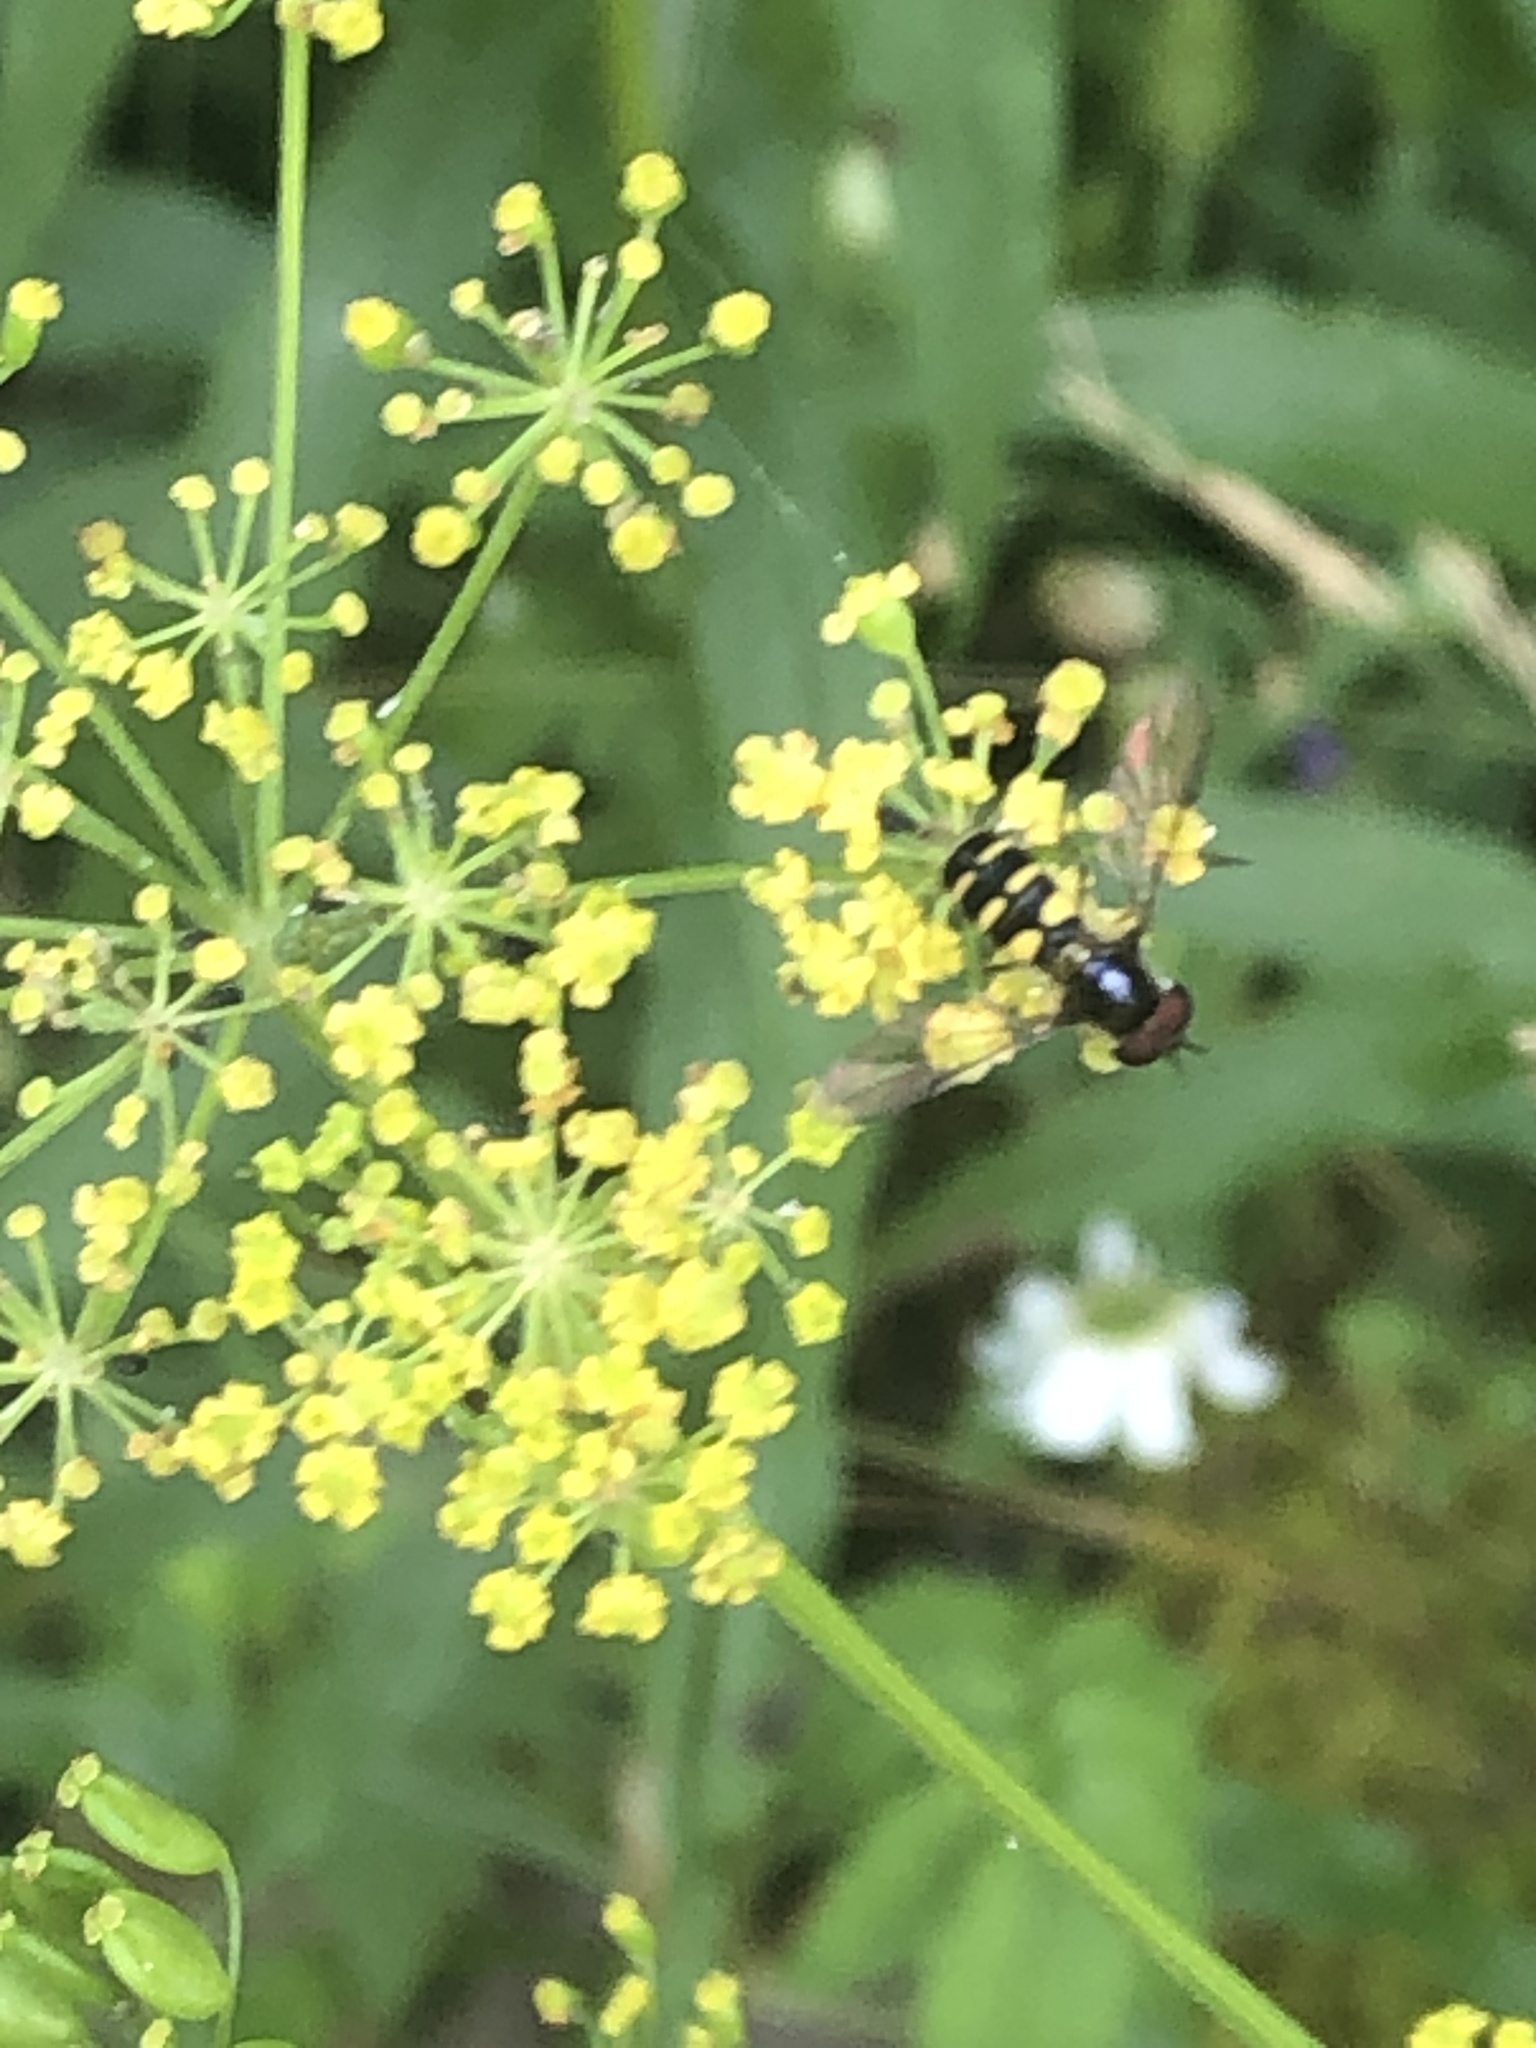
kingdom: Animalia
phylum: Arthropoda
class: Insecta
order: Diptera
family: Syrphidae
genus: Melangyna
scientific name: Melangyna fisherii
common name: Large-spotted halfband
